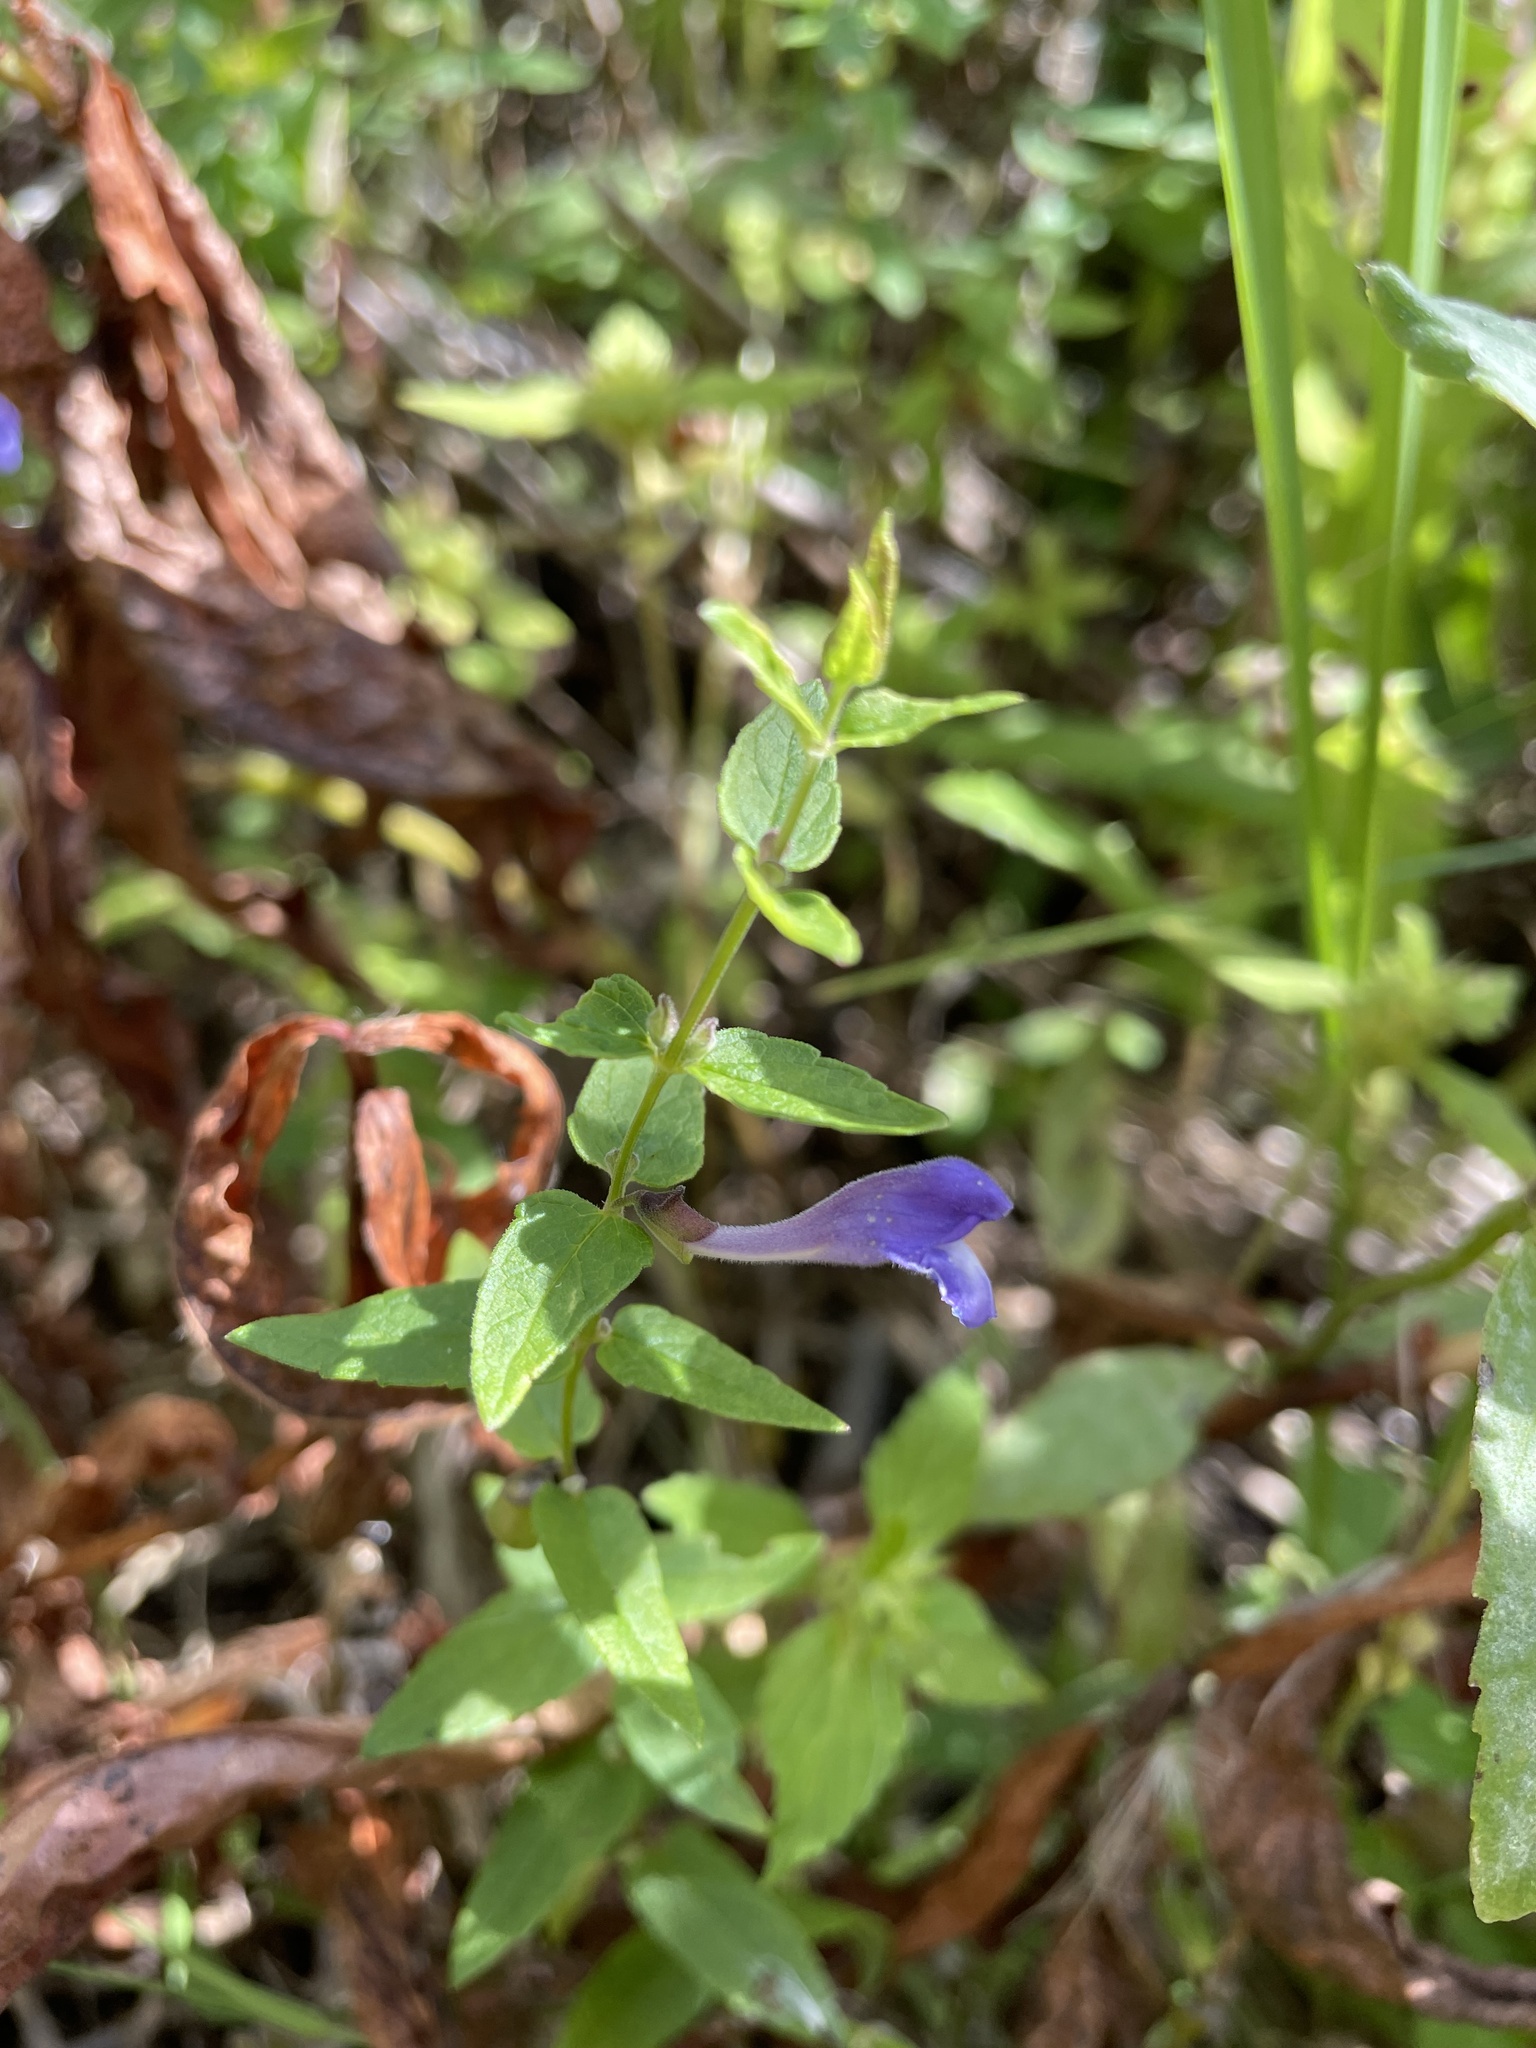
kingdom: Plantae
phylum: Tracheophyta
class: Magnoliopsida
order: Lamiales
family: Lamiaceae
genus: Scutellaria
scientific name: Scutellaria galericulata
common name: Skullcap
